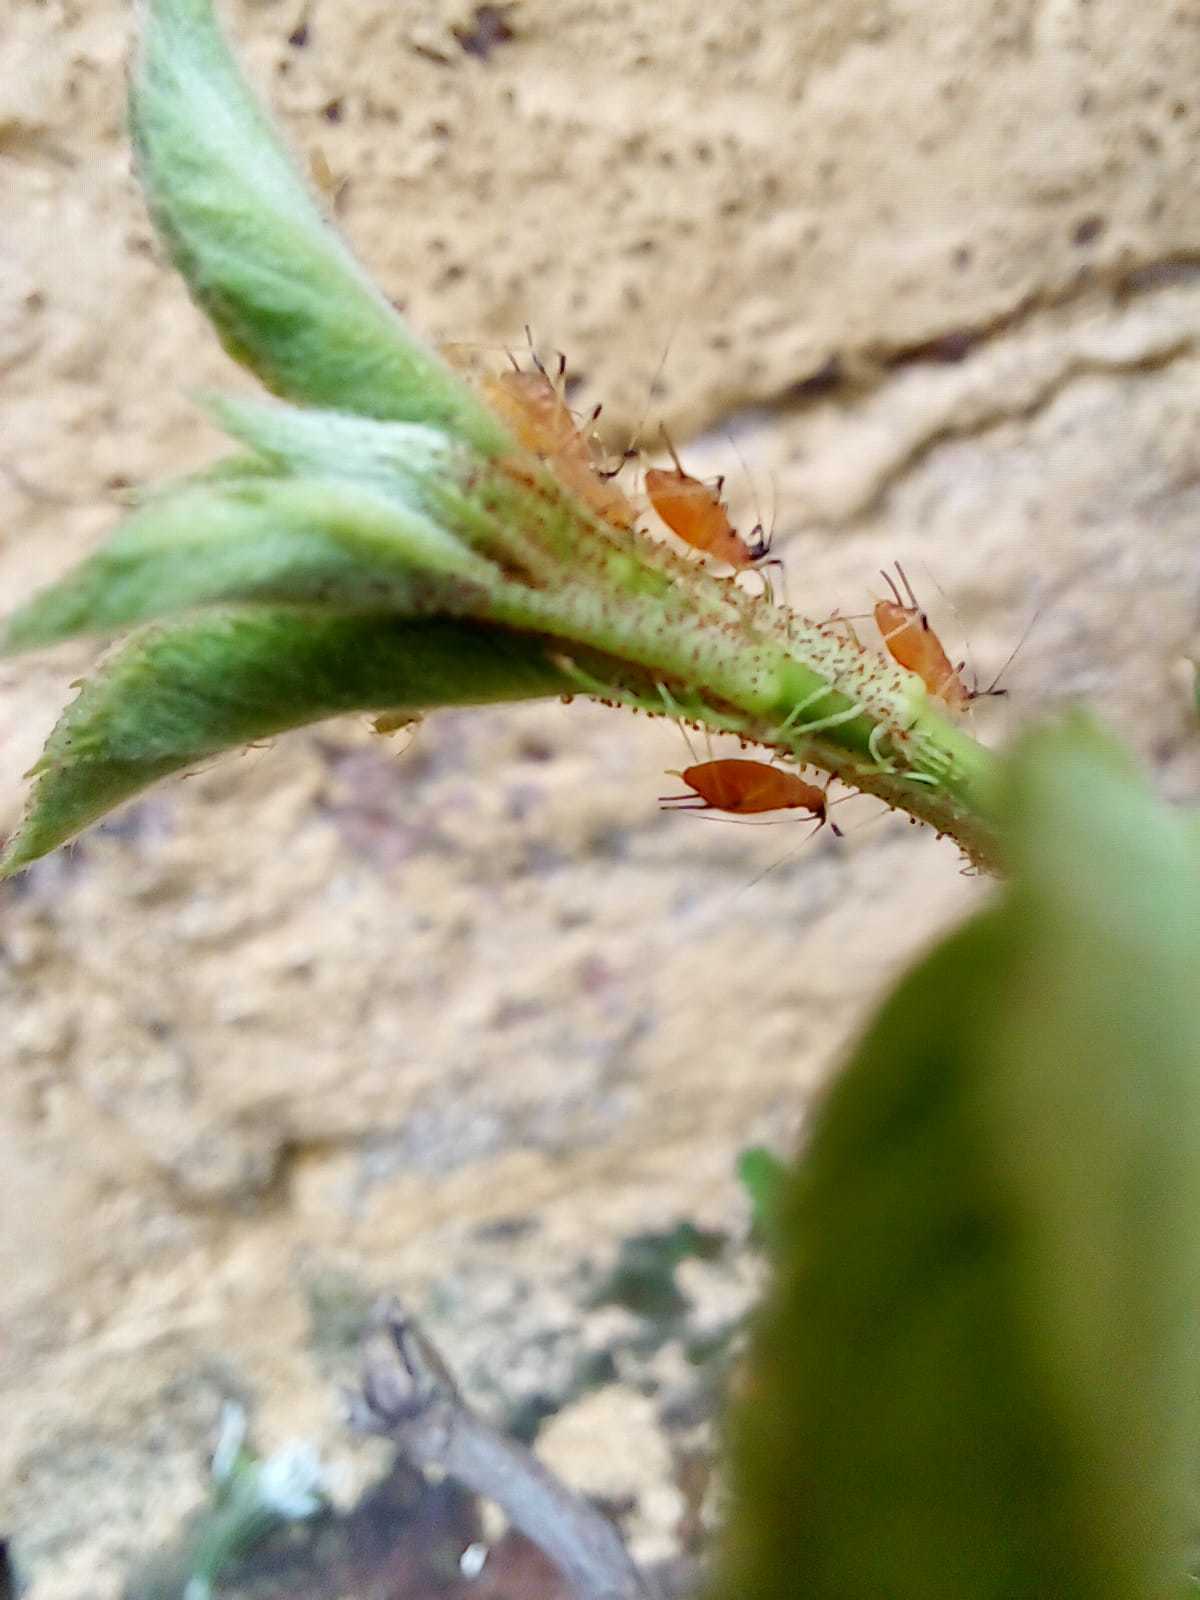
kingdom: Animalia
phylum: Arthropoda
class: Insecta
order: Hemiptera
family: Aphididae
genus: Macrosiphum
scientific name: Macrosiphum rosae
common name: Rose aphid
